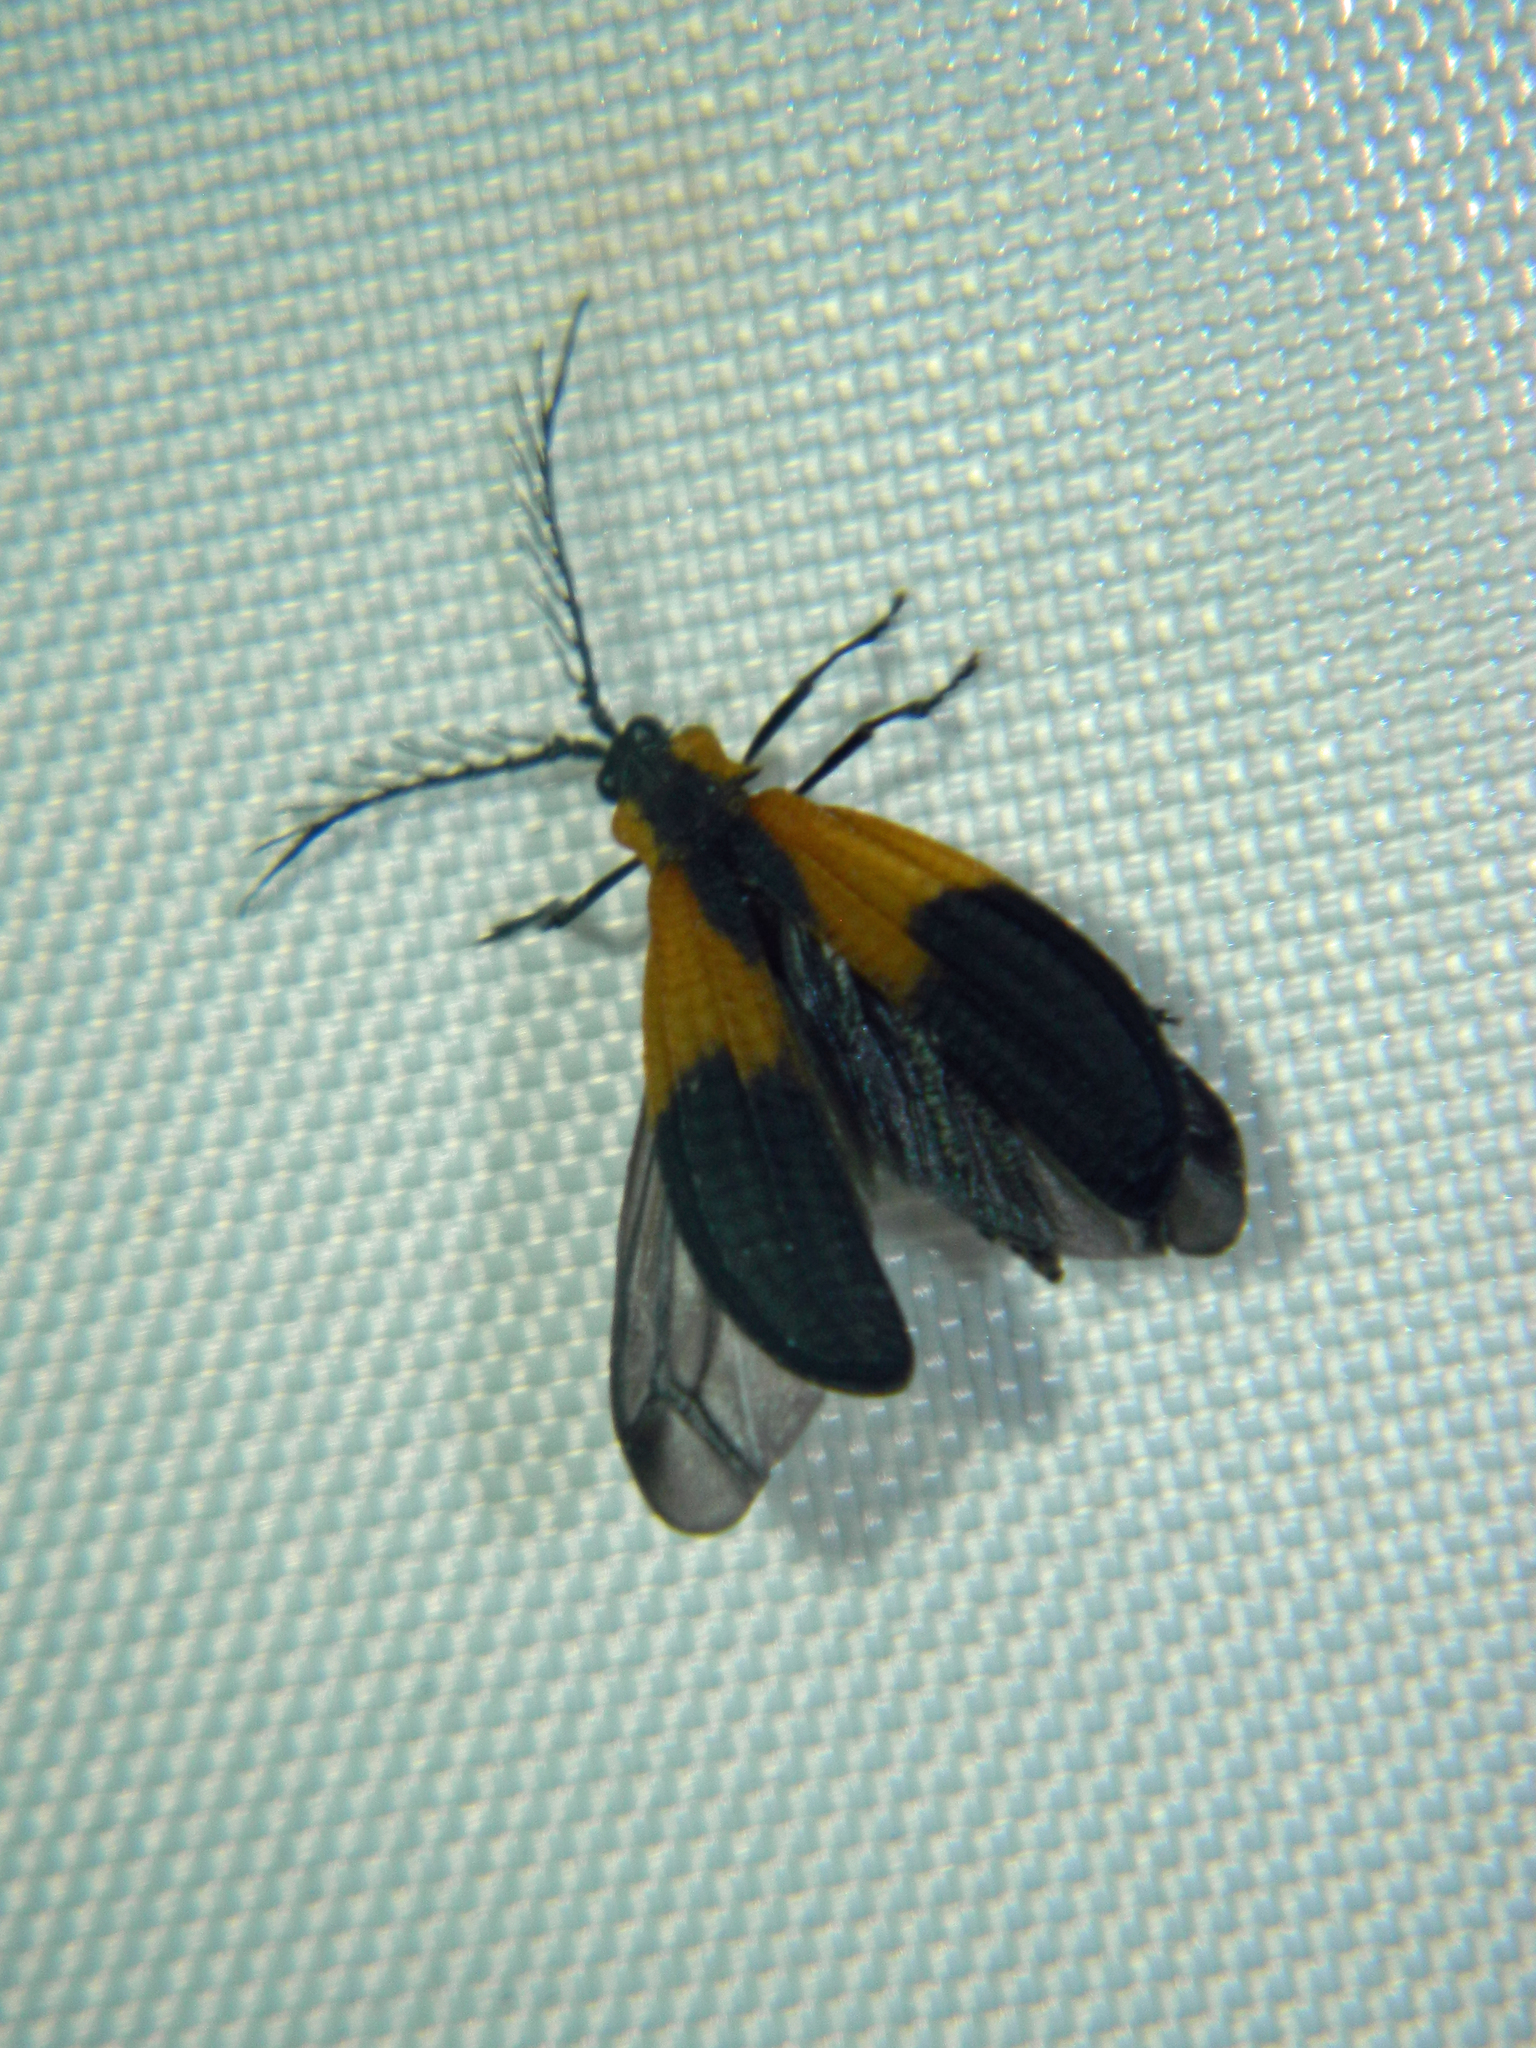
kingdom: Animalia
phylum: Arthropoda
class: Insecta
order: Coleoptera
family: Lycidae
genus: Caenia
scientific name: Caenia dimidiata
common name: Terminal net-winged beetle
